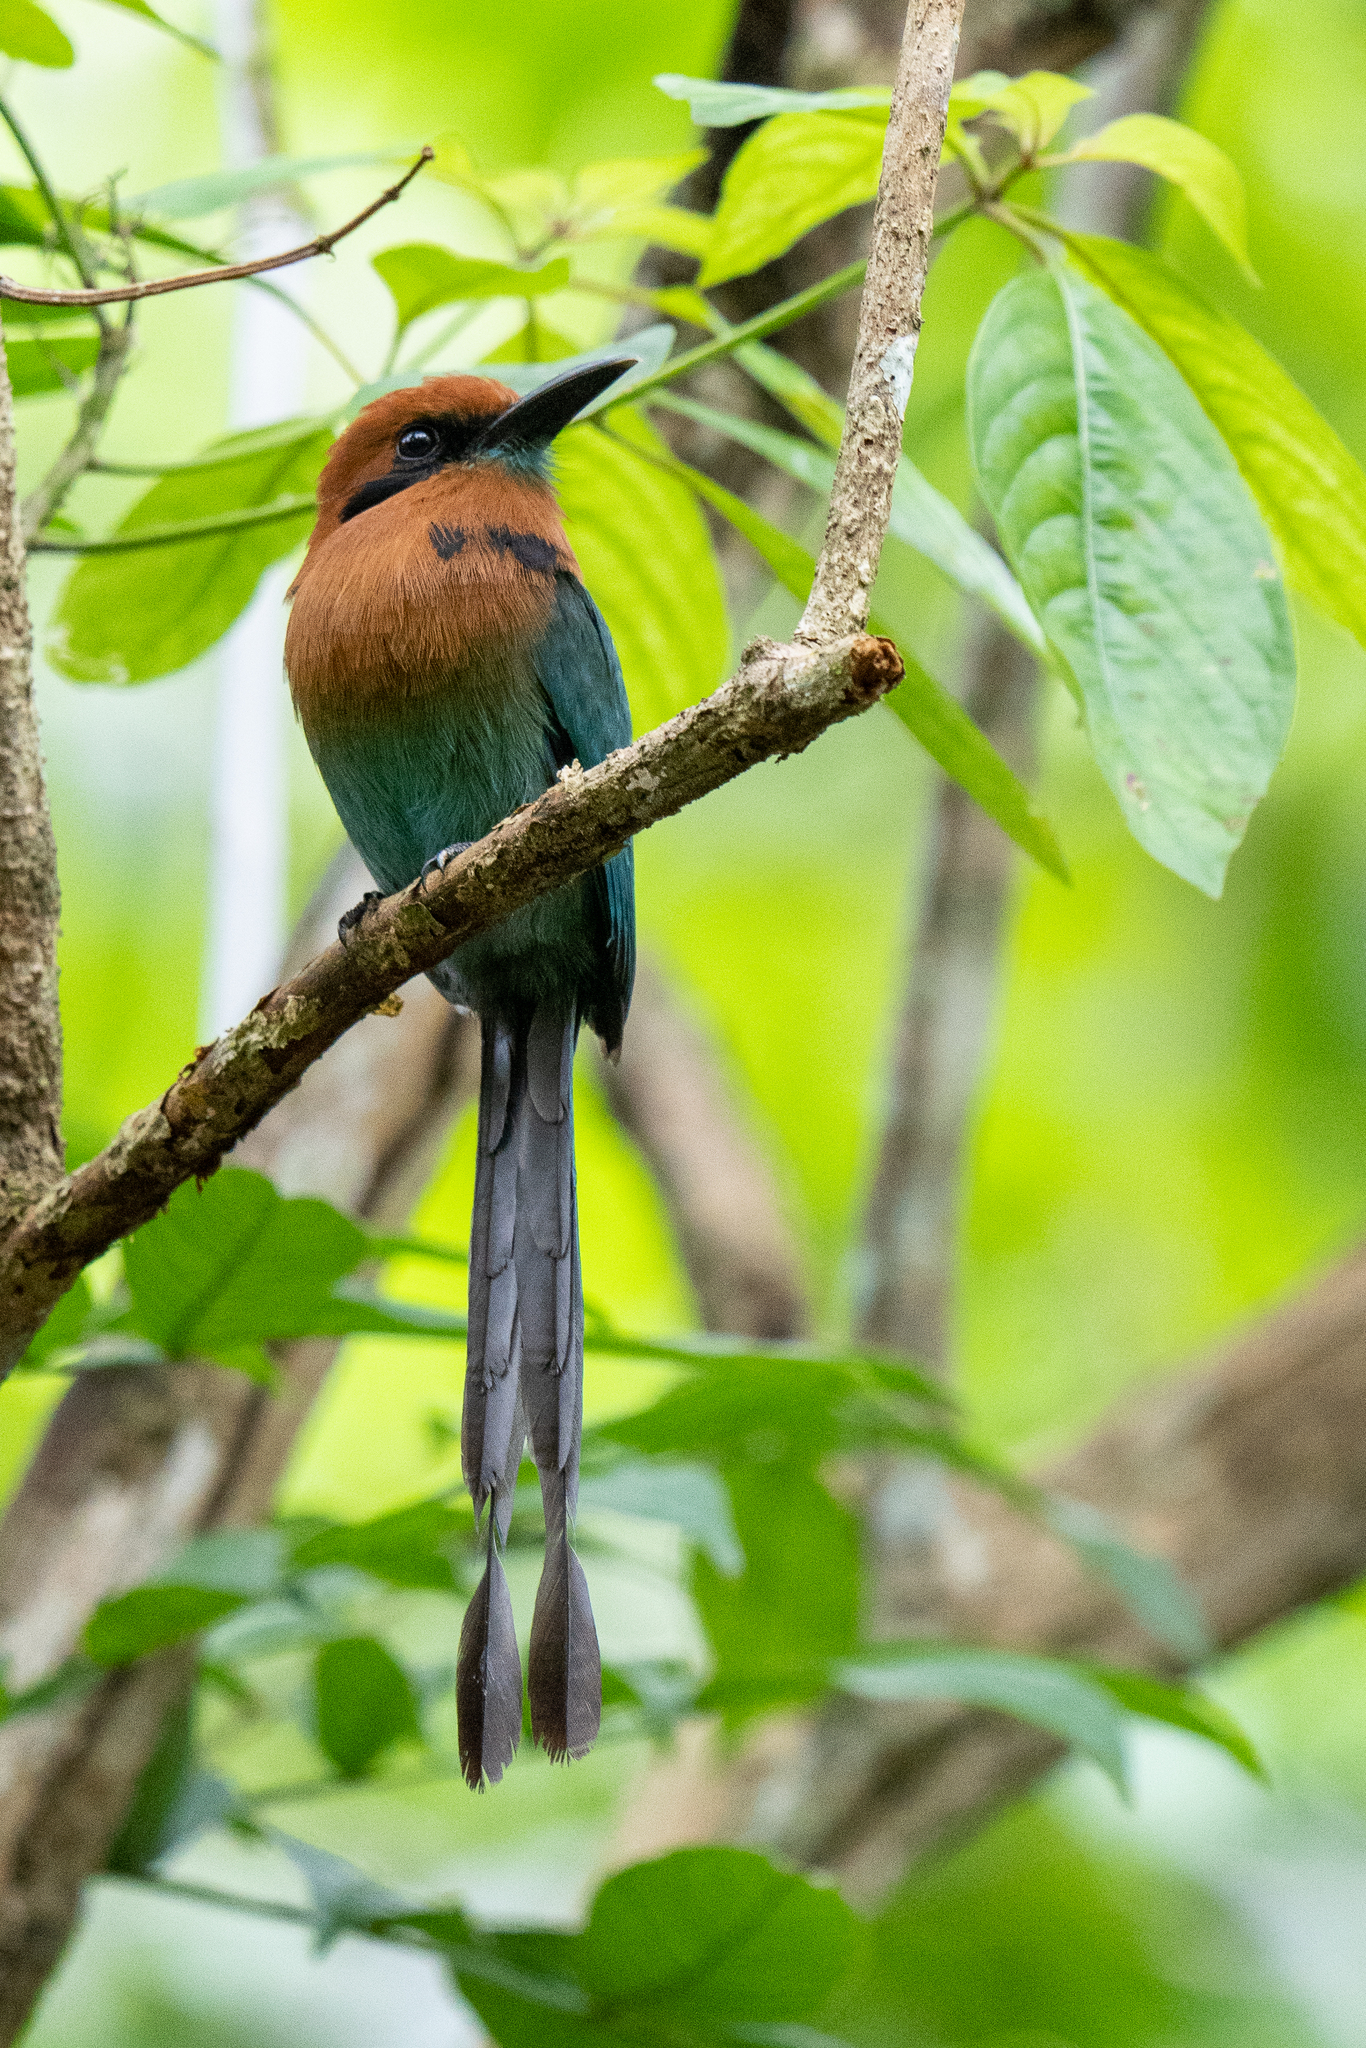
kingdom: Animalia
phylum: Chordata
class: Aves
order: Coraciiformes
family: Momotidae
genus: Electron
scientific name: Electron platyrhynchum
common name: Broad-billed motmot
